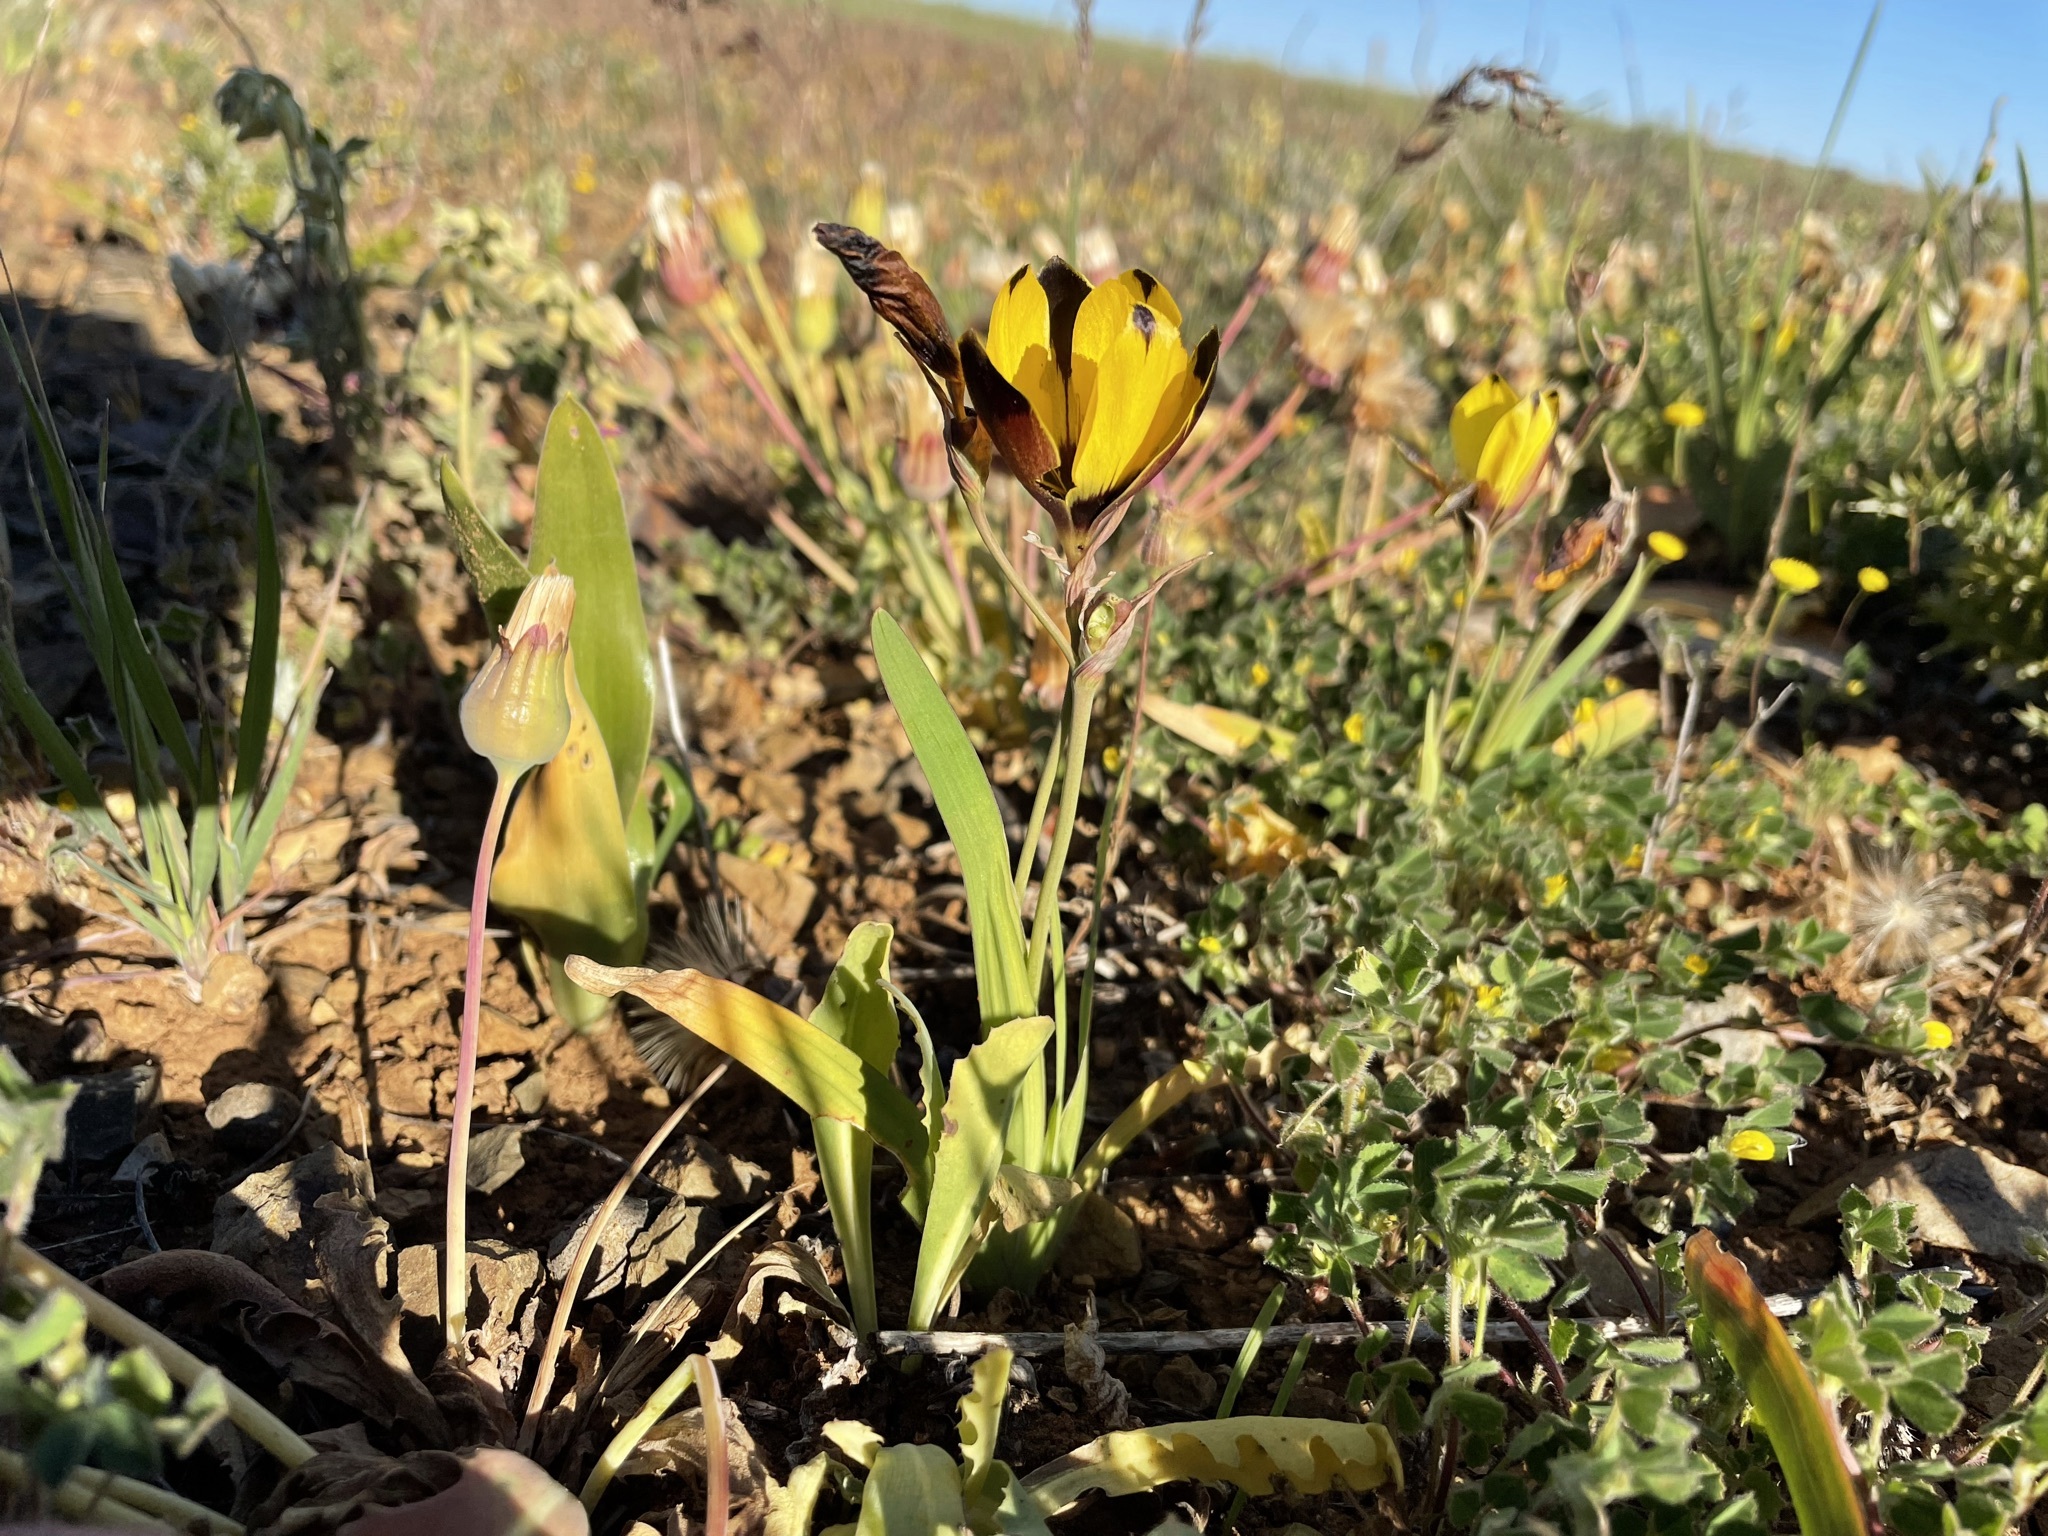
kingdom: Plantae
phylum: Tracheophyta
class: Liliopsida
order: Asparagales
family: Iridaceae
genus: Hesperantha
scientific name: Hesperantha vaginata
